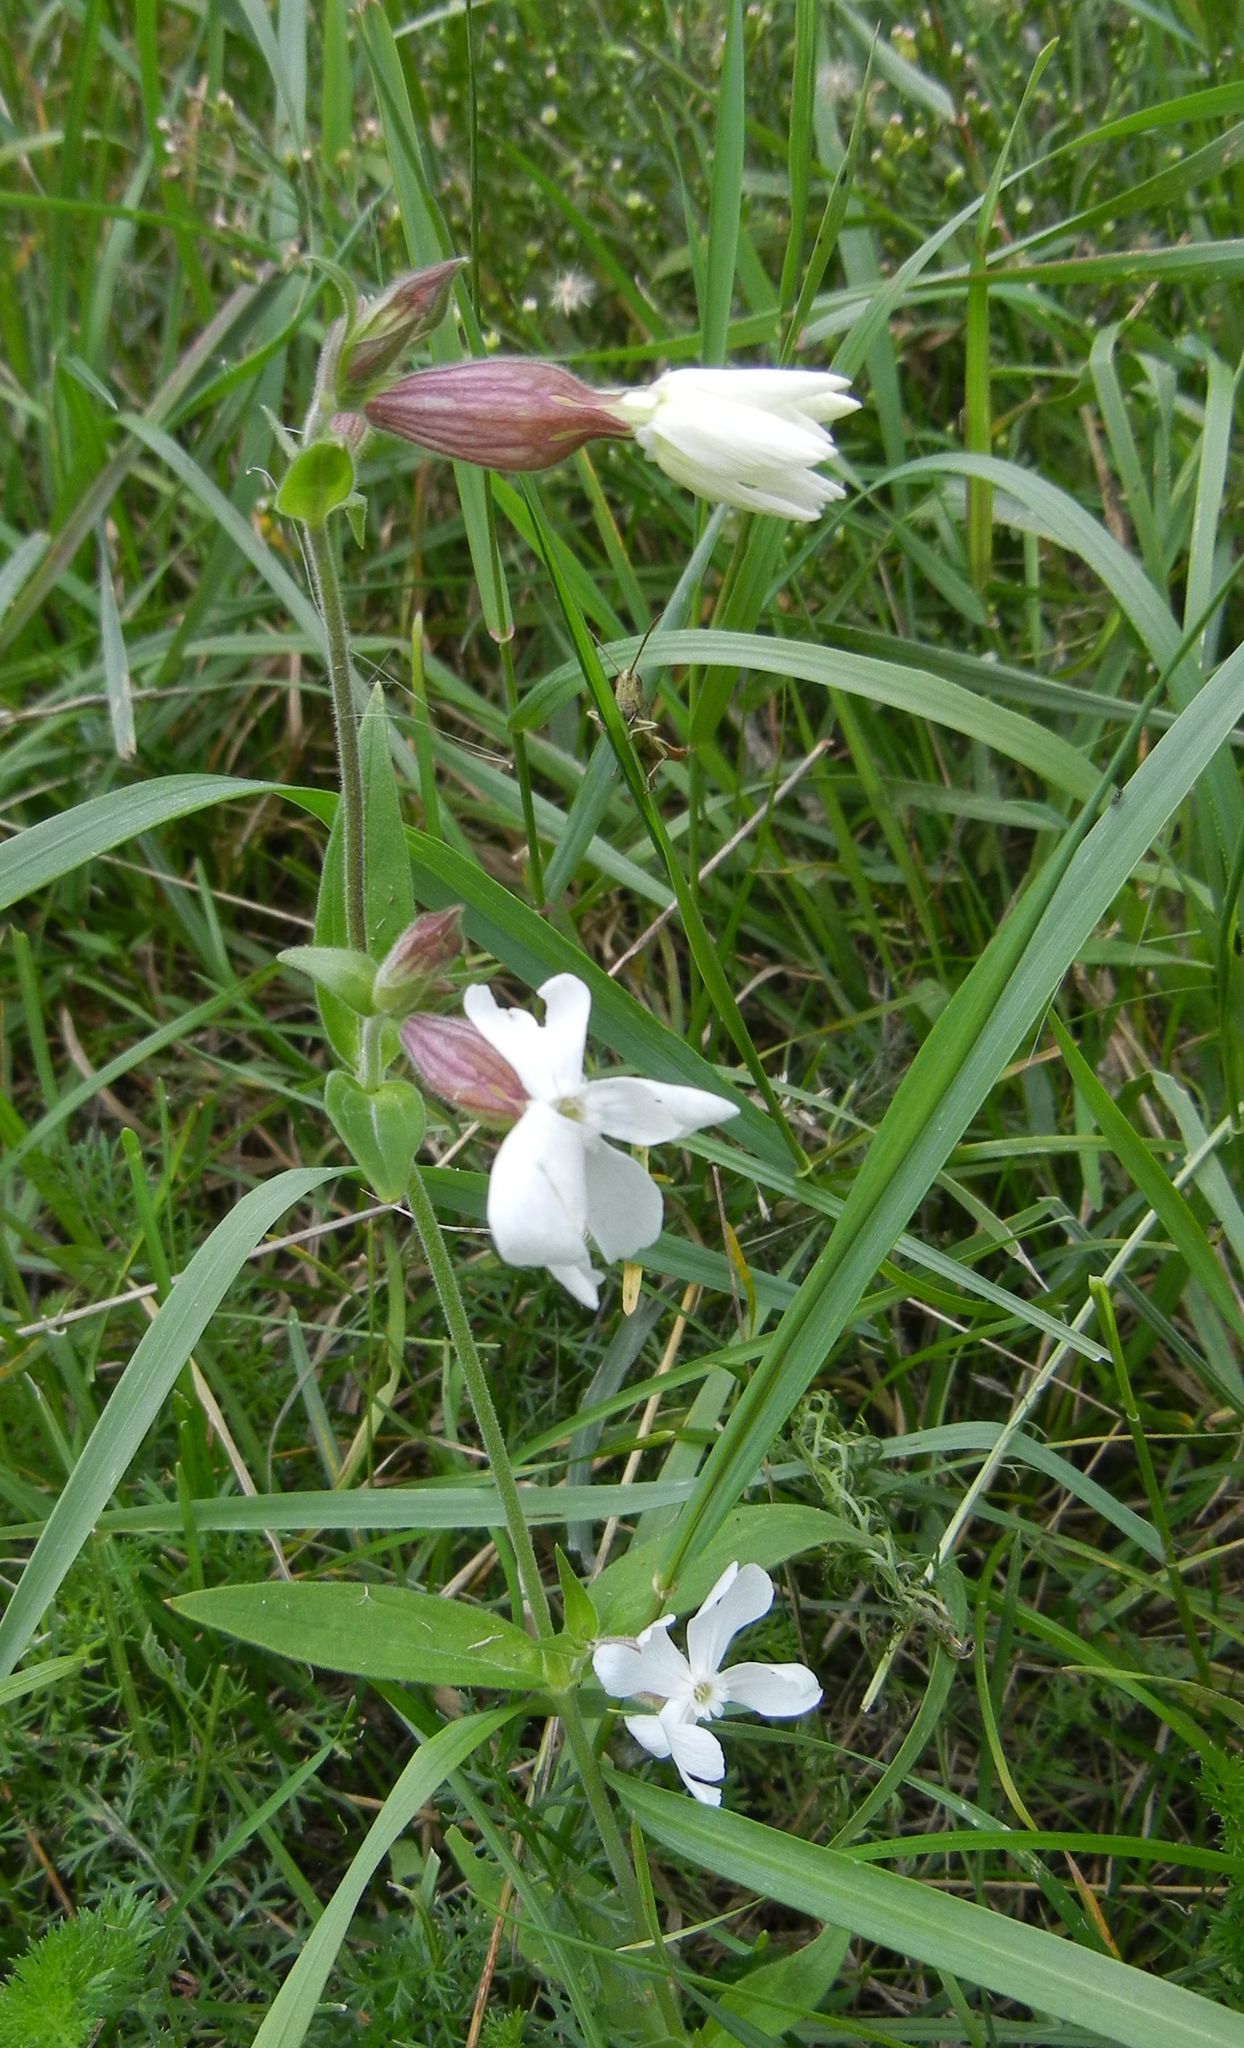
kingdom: Plantae
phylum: Tracheophyta
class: Magnoliopsida
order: Caryophyllales
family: Caryophyllaceae
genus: Silene
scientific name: Silene latifolia
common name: White campion
